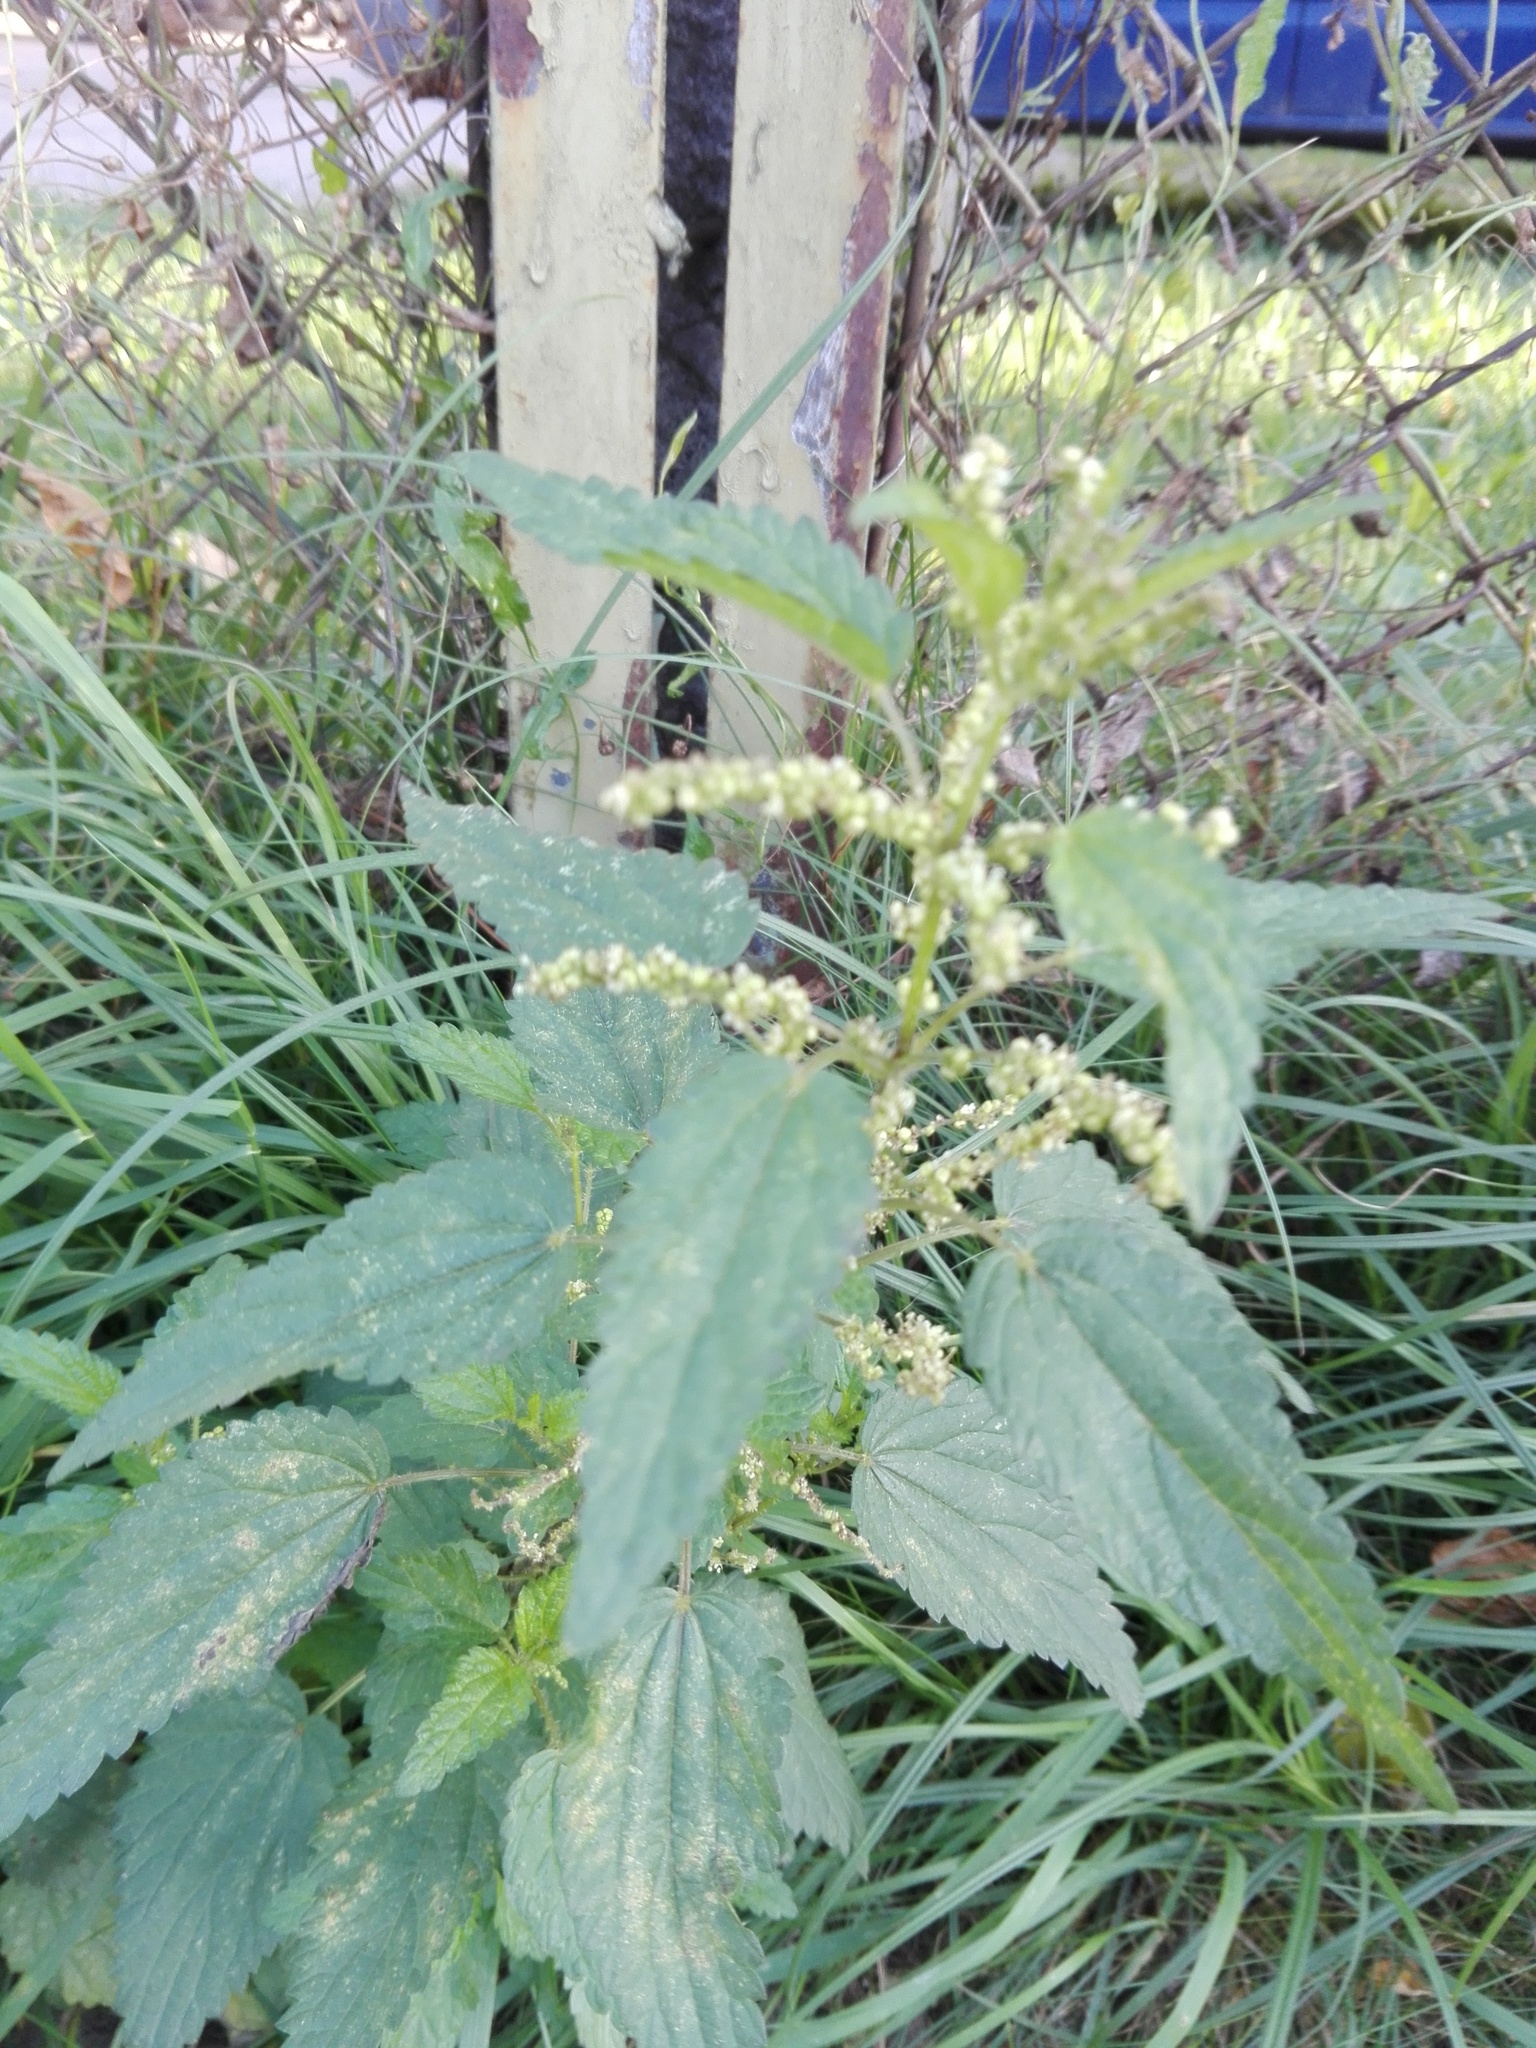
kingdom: Plantae
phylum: Tracheophyta
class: Magnoliopsida
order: Rosales
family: Urticaceae
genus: Urtica
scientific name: Urtica dioica
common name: Common nettle
